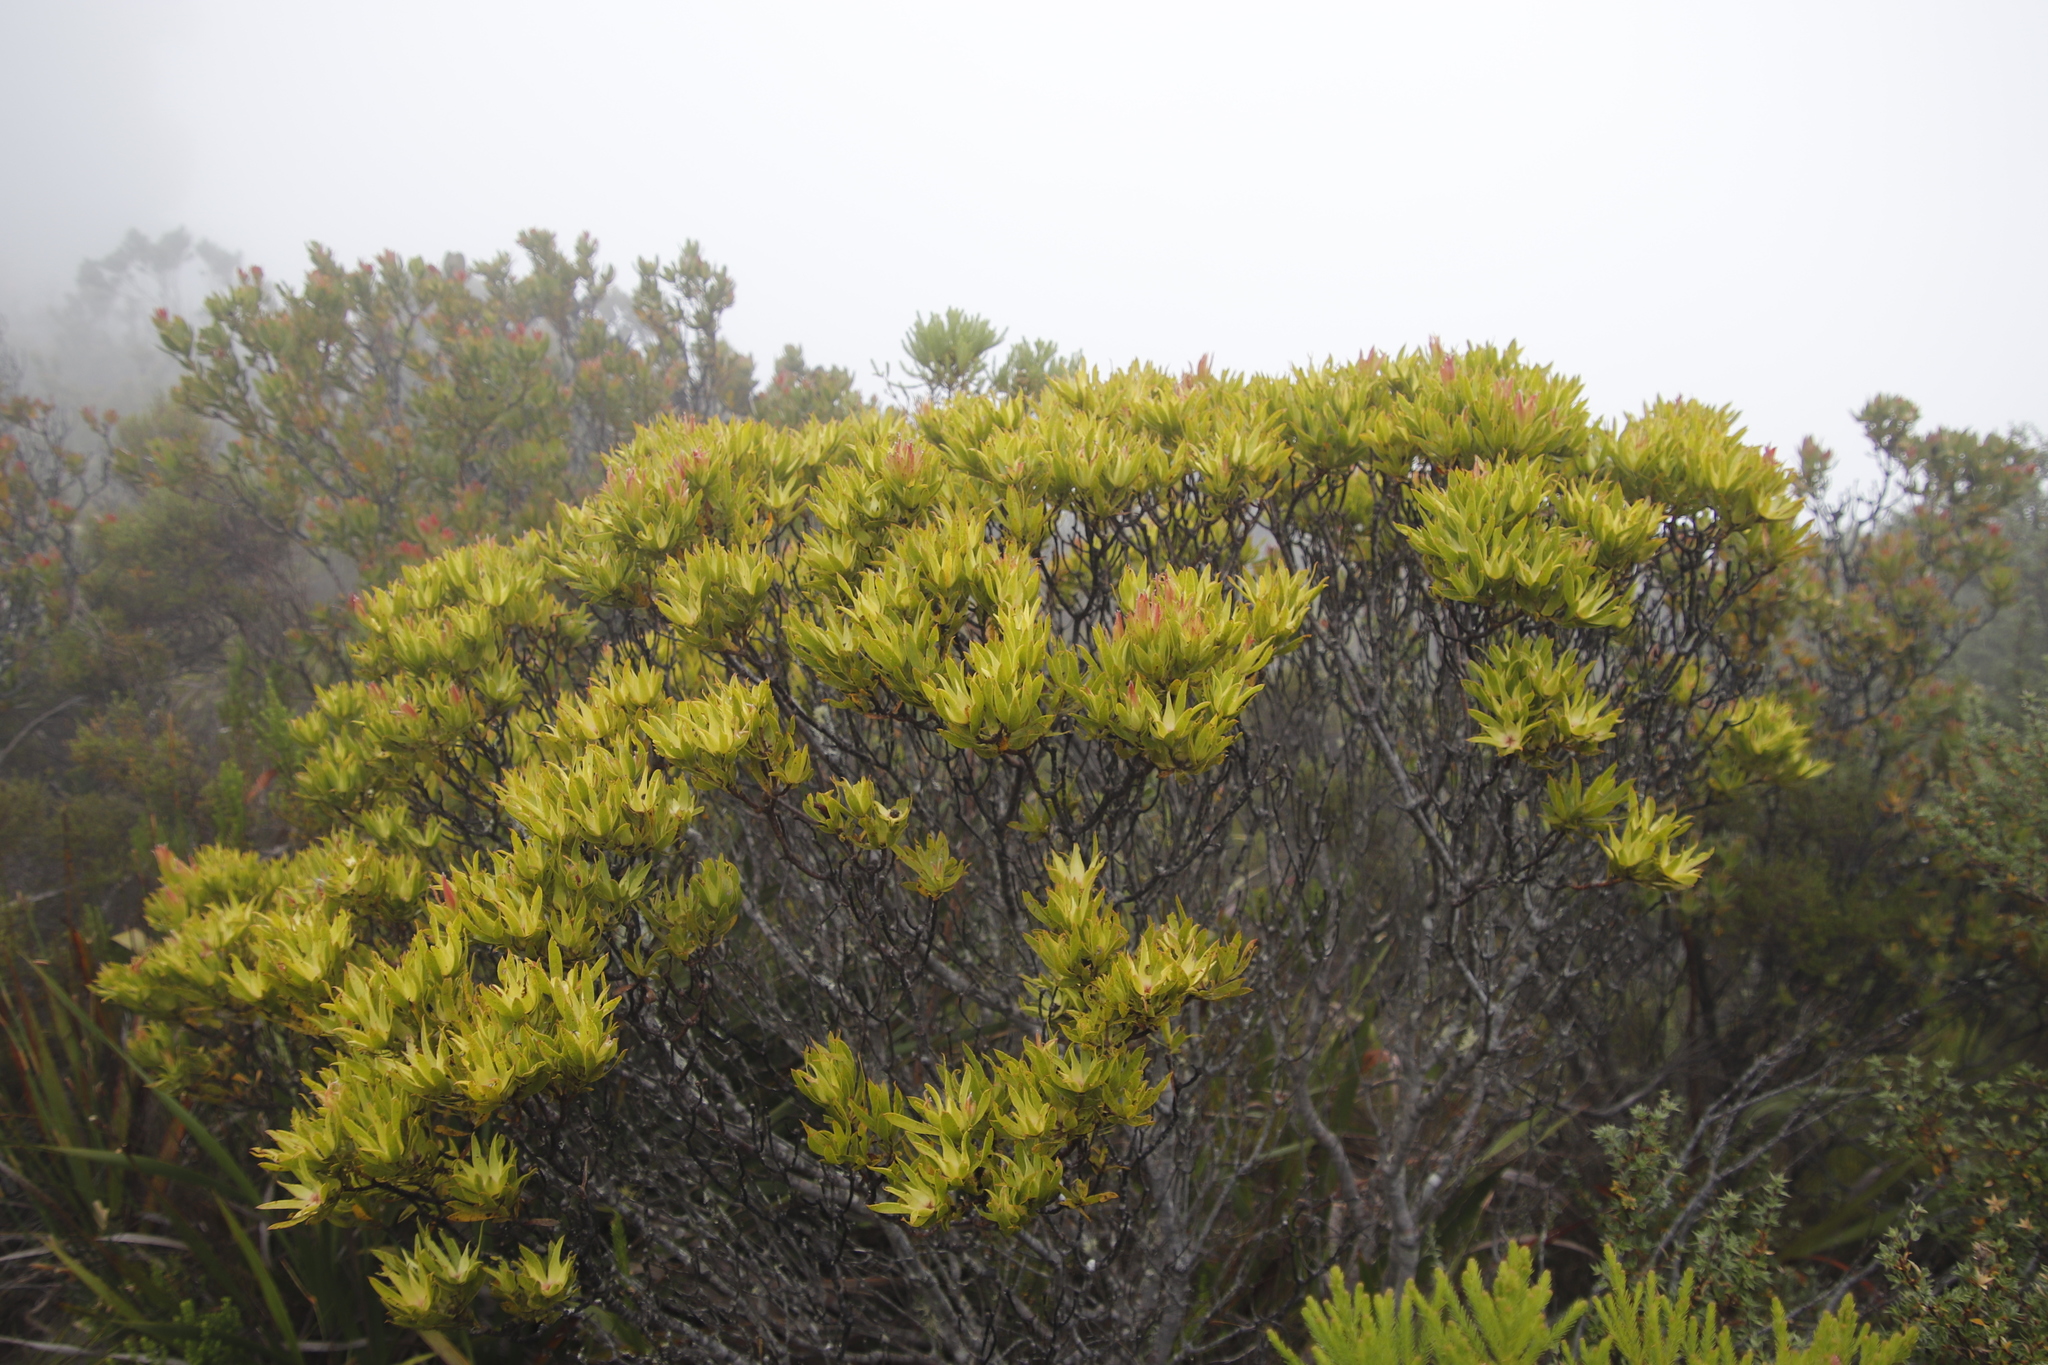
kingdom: Plantae
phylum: Tracheophyta
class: Magnoliopsida
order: Proteales
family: Proteaceae
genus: Leucadendron
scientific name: Leucadendron
